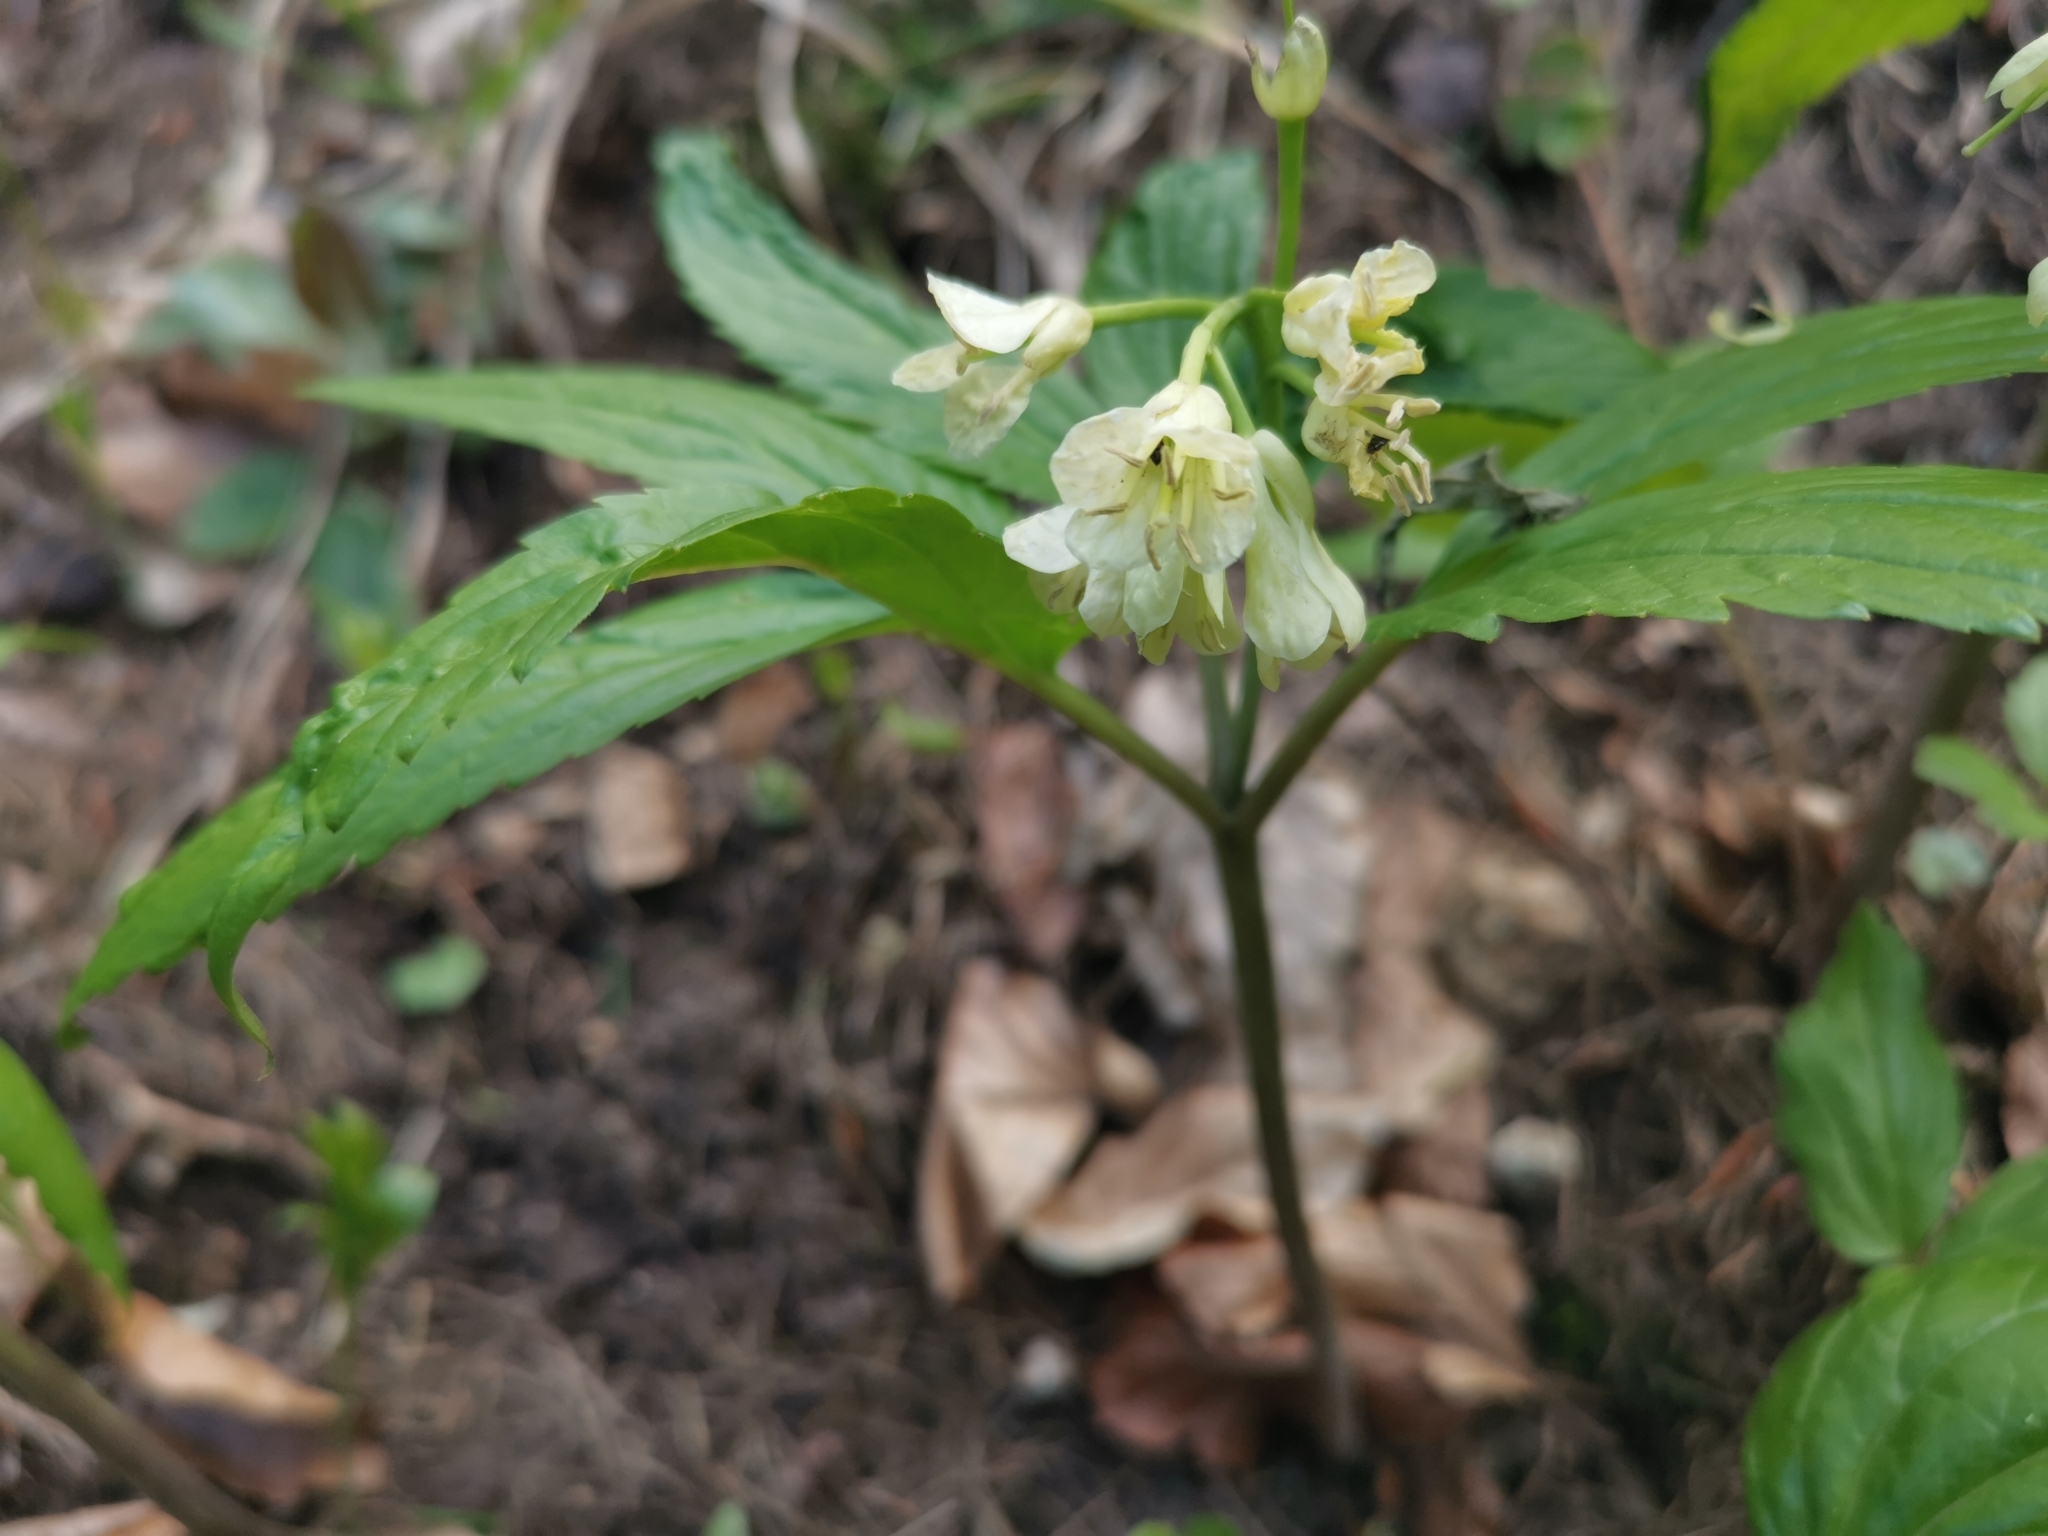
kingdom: Plantae
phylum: Tracheophyta
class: Magnoliopsida
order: Brassicales
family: Brassicaceae
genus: Cardamine
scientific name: Cardamine enneaphyllos
